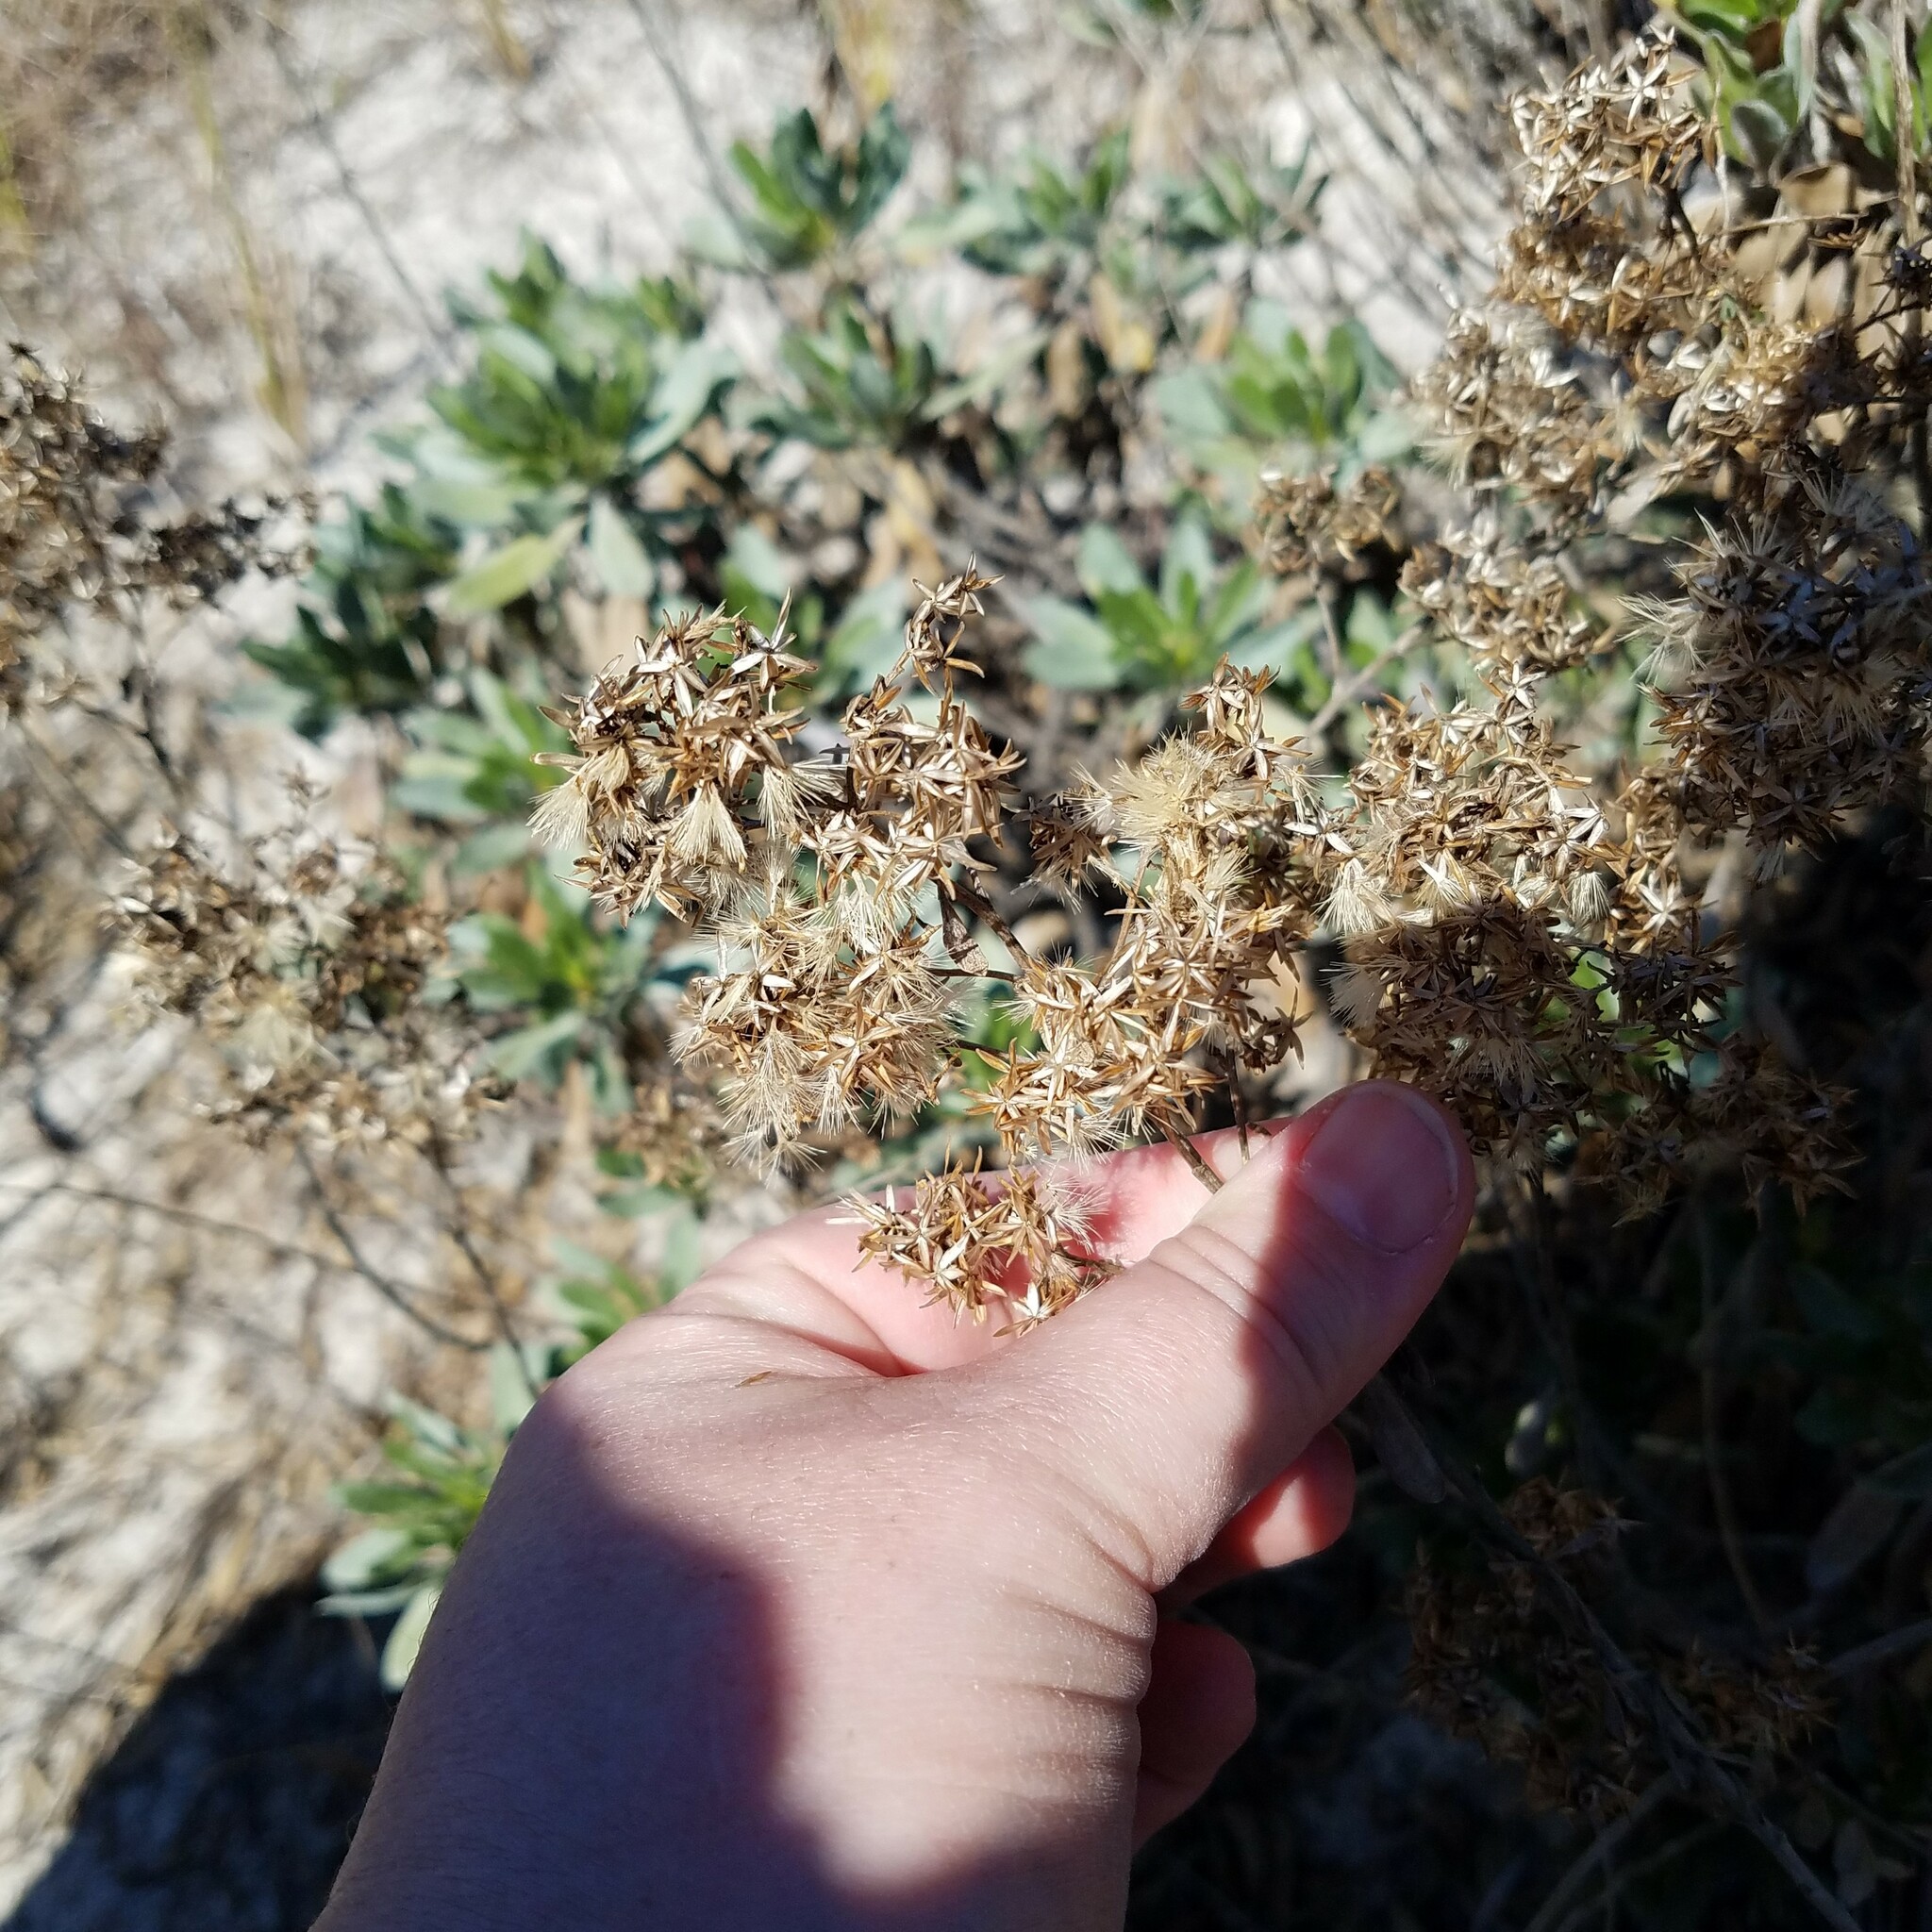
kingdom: Plantae
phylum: Tracheophyta
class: Magnoliopsida
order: Asterales
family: Asteraceae
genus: Chrysoma
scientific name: Chrysoma pauciflosculosa
